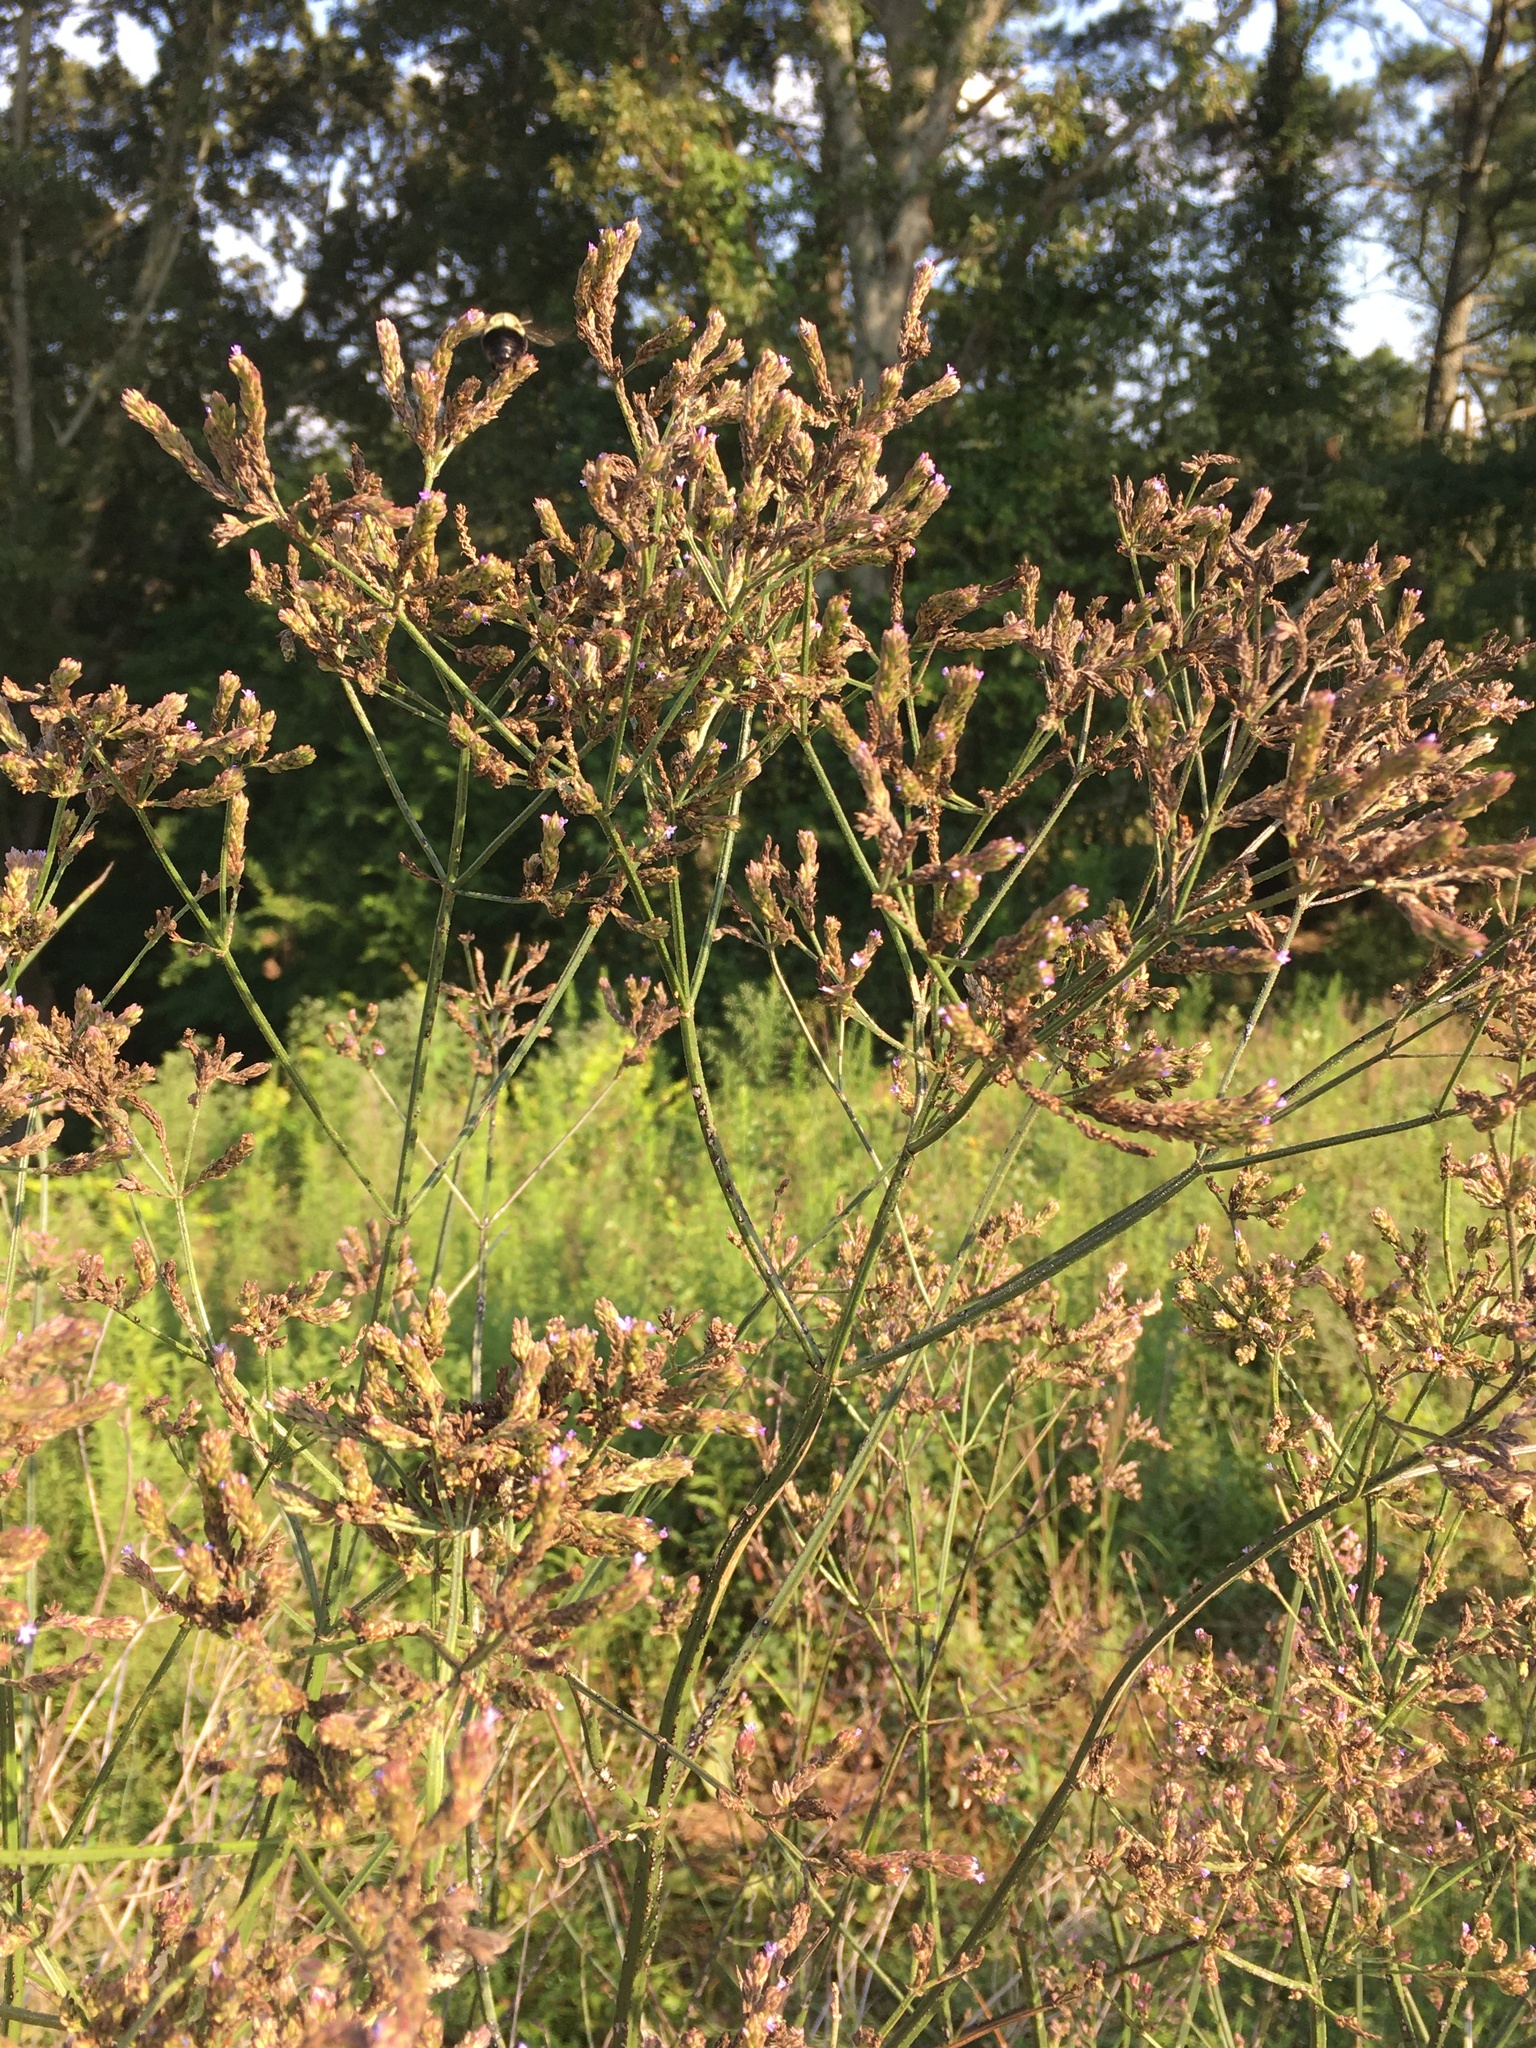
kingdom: Plantae
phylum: Tracheophyta
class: Magnoliopsida
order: Lamiales
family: Verbenaceae
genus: Verbena
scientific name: Verbena brasiliensis
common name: Brazilian vervain
